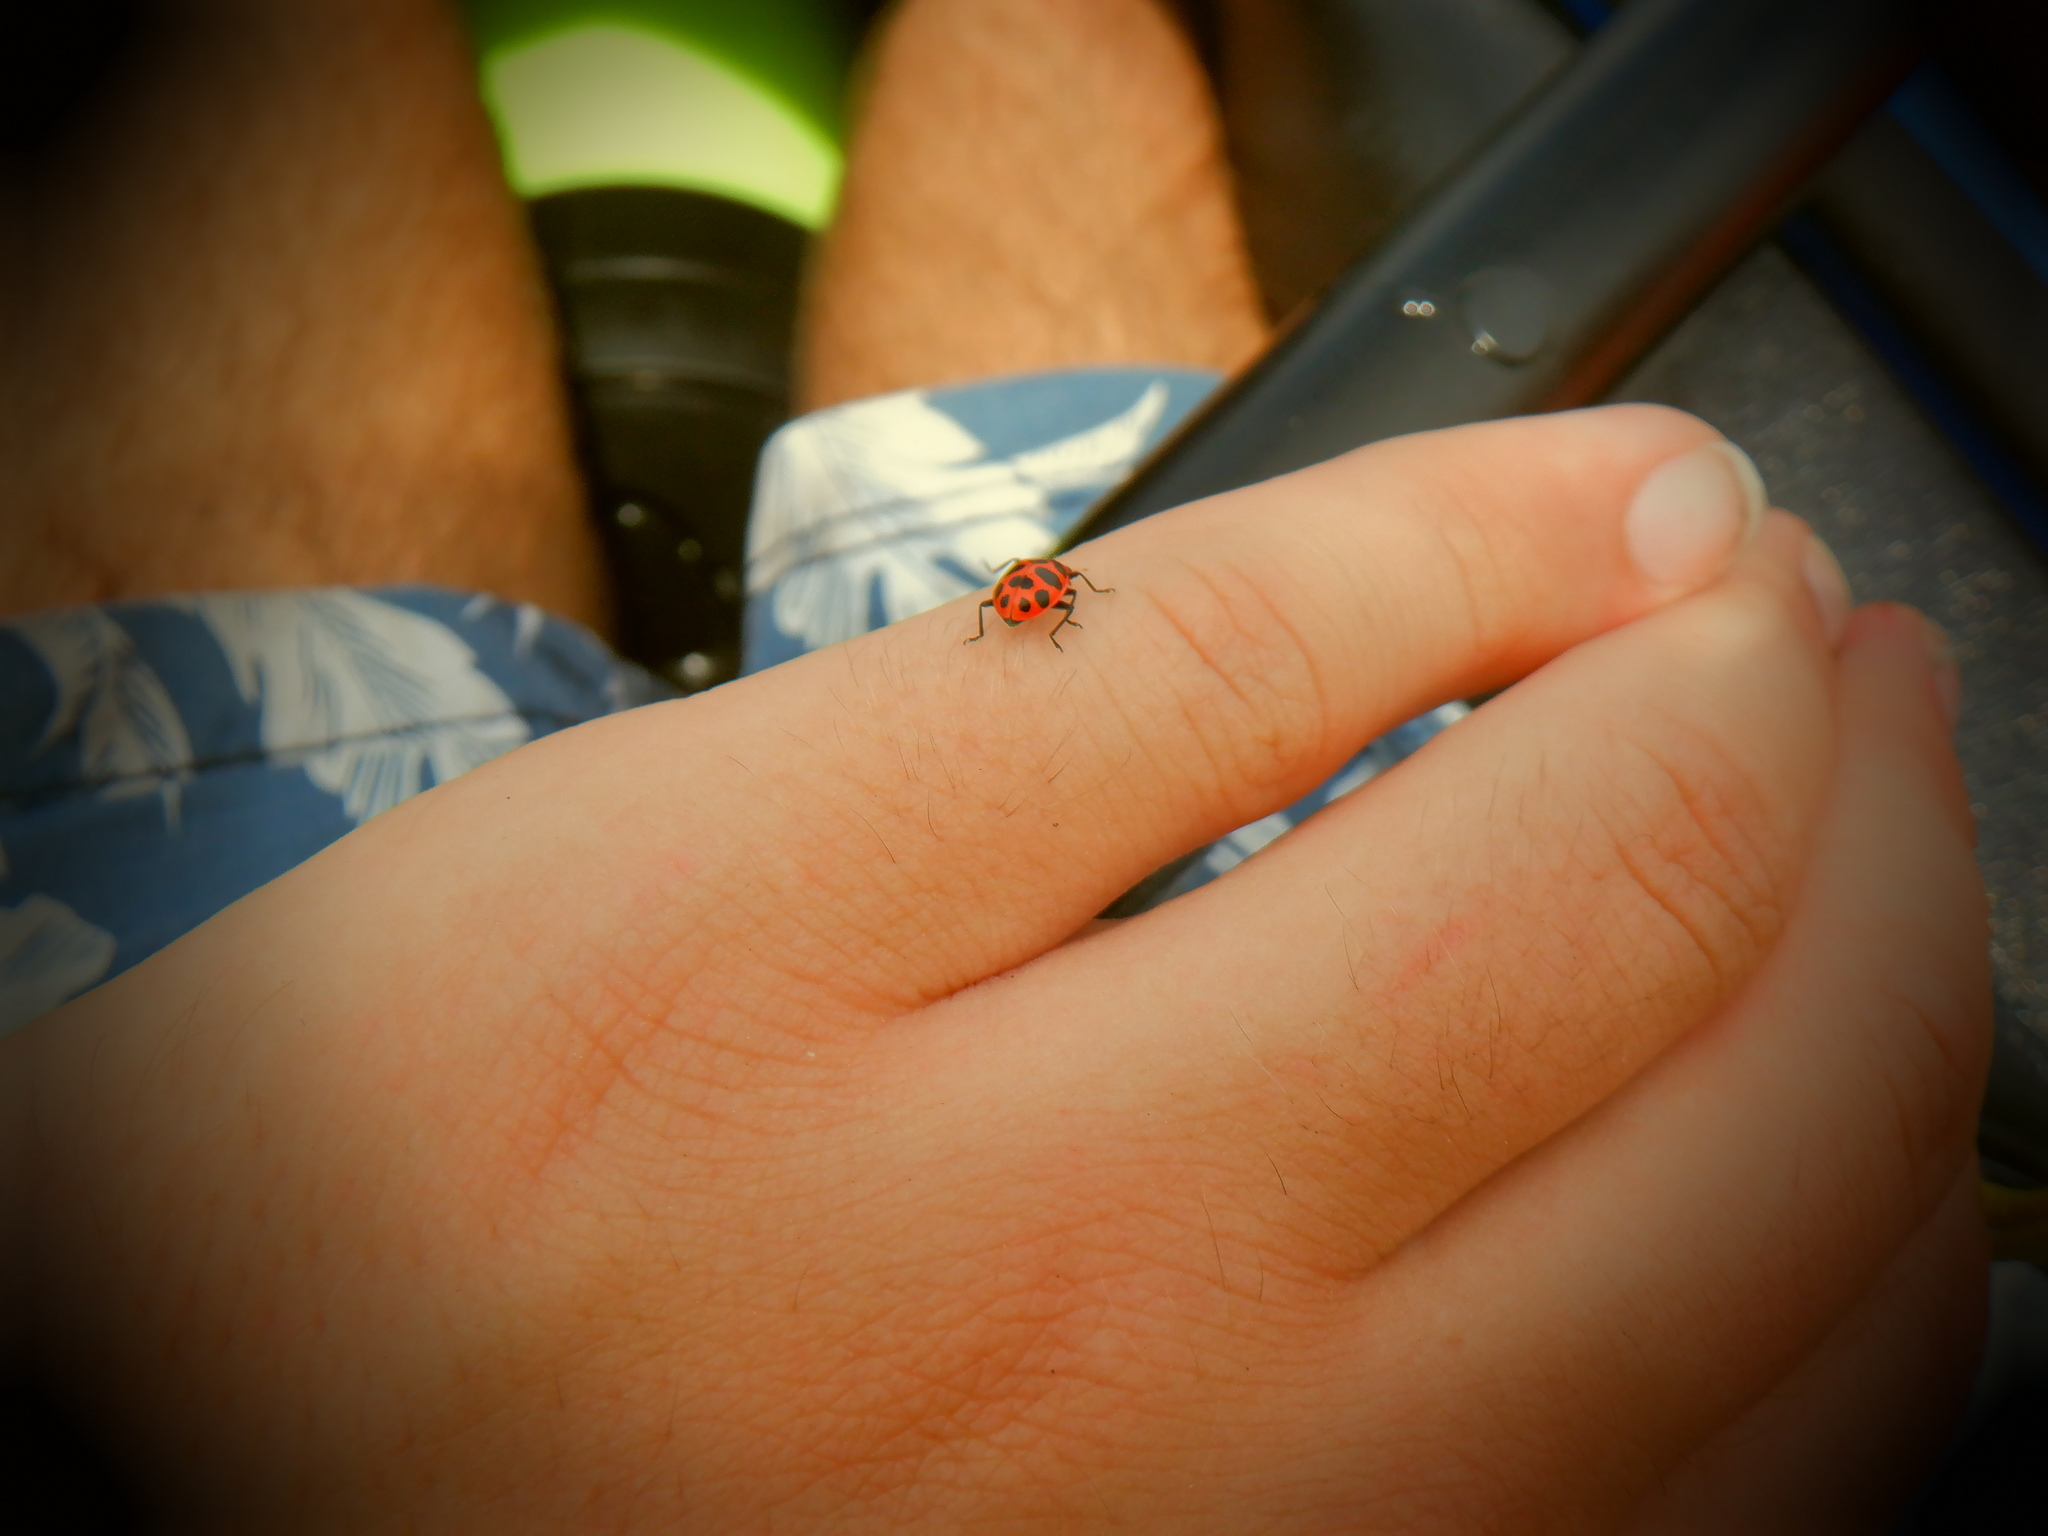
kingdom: Animalia
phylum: Arthropoda
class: Insecta
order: Coleoptera
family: Coccinellidae
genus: Coleomegilla
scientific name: Coleomegilla maculata
